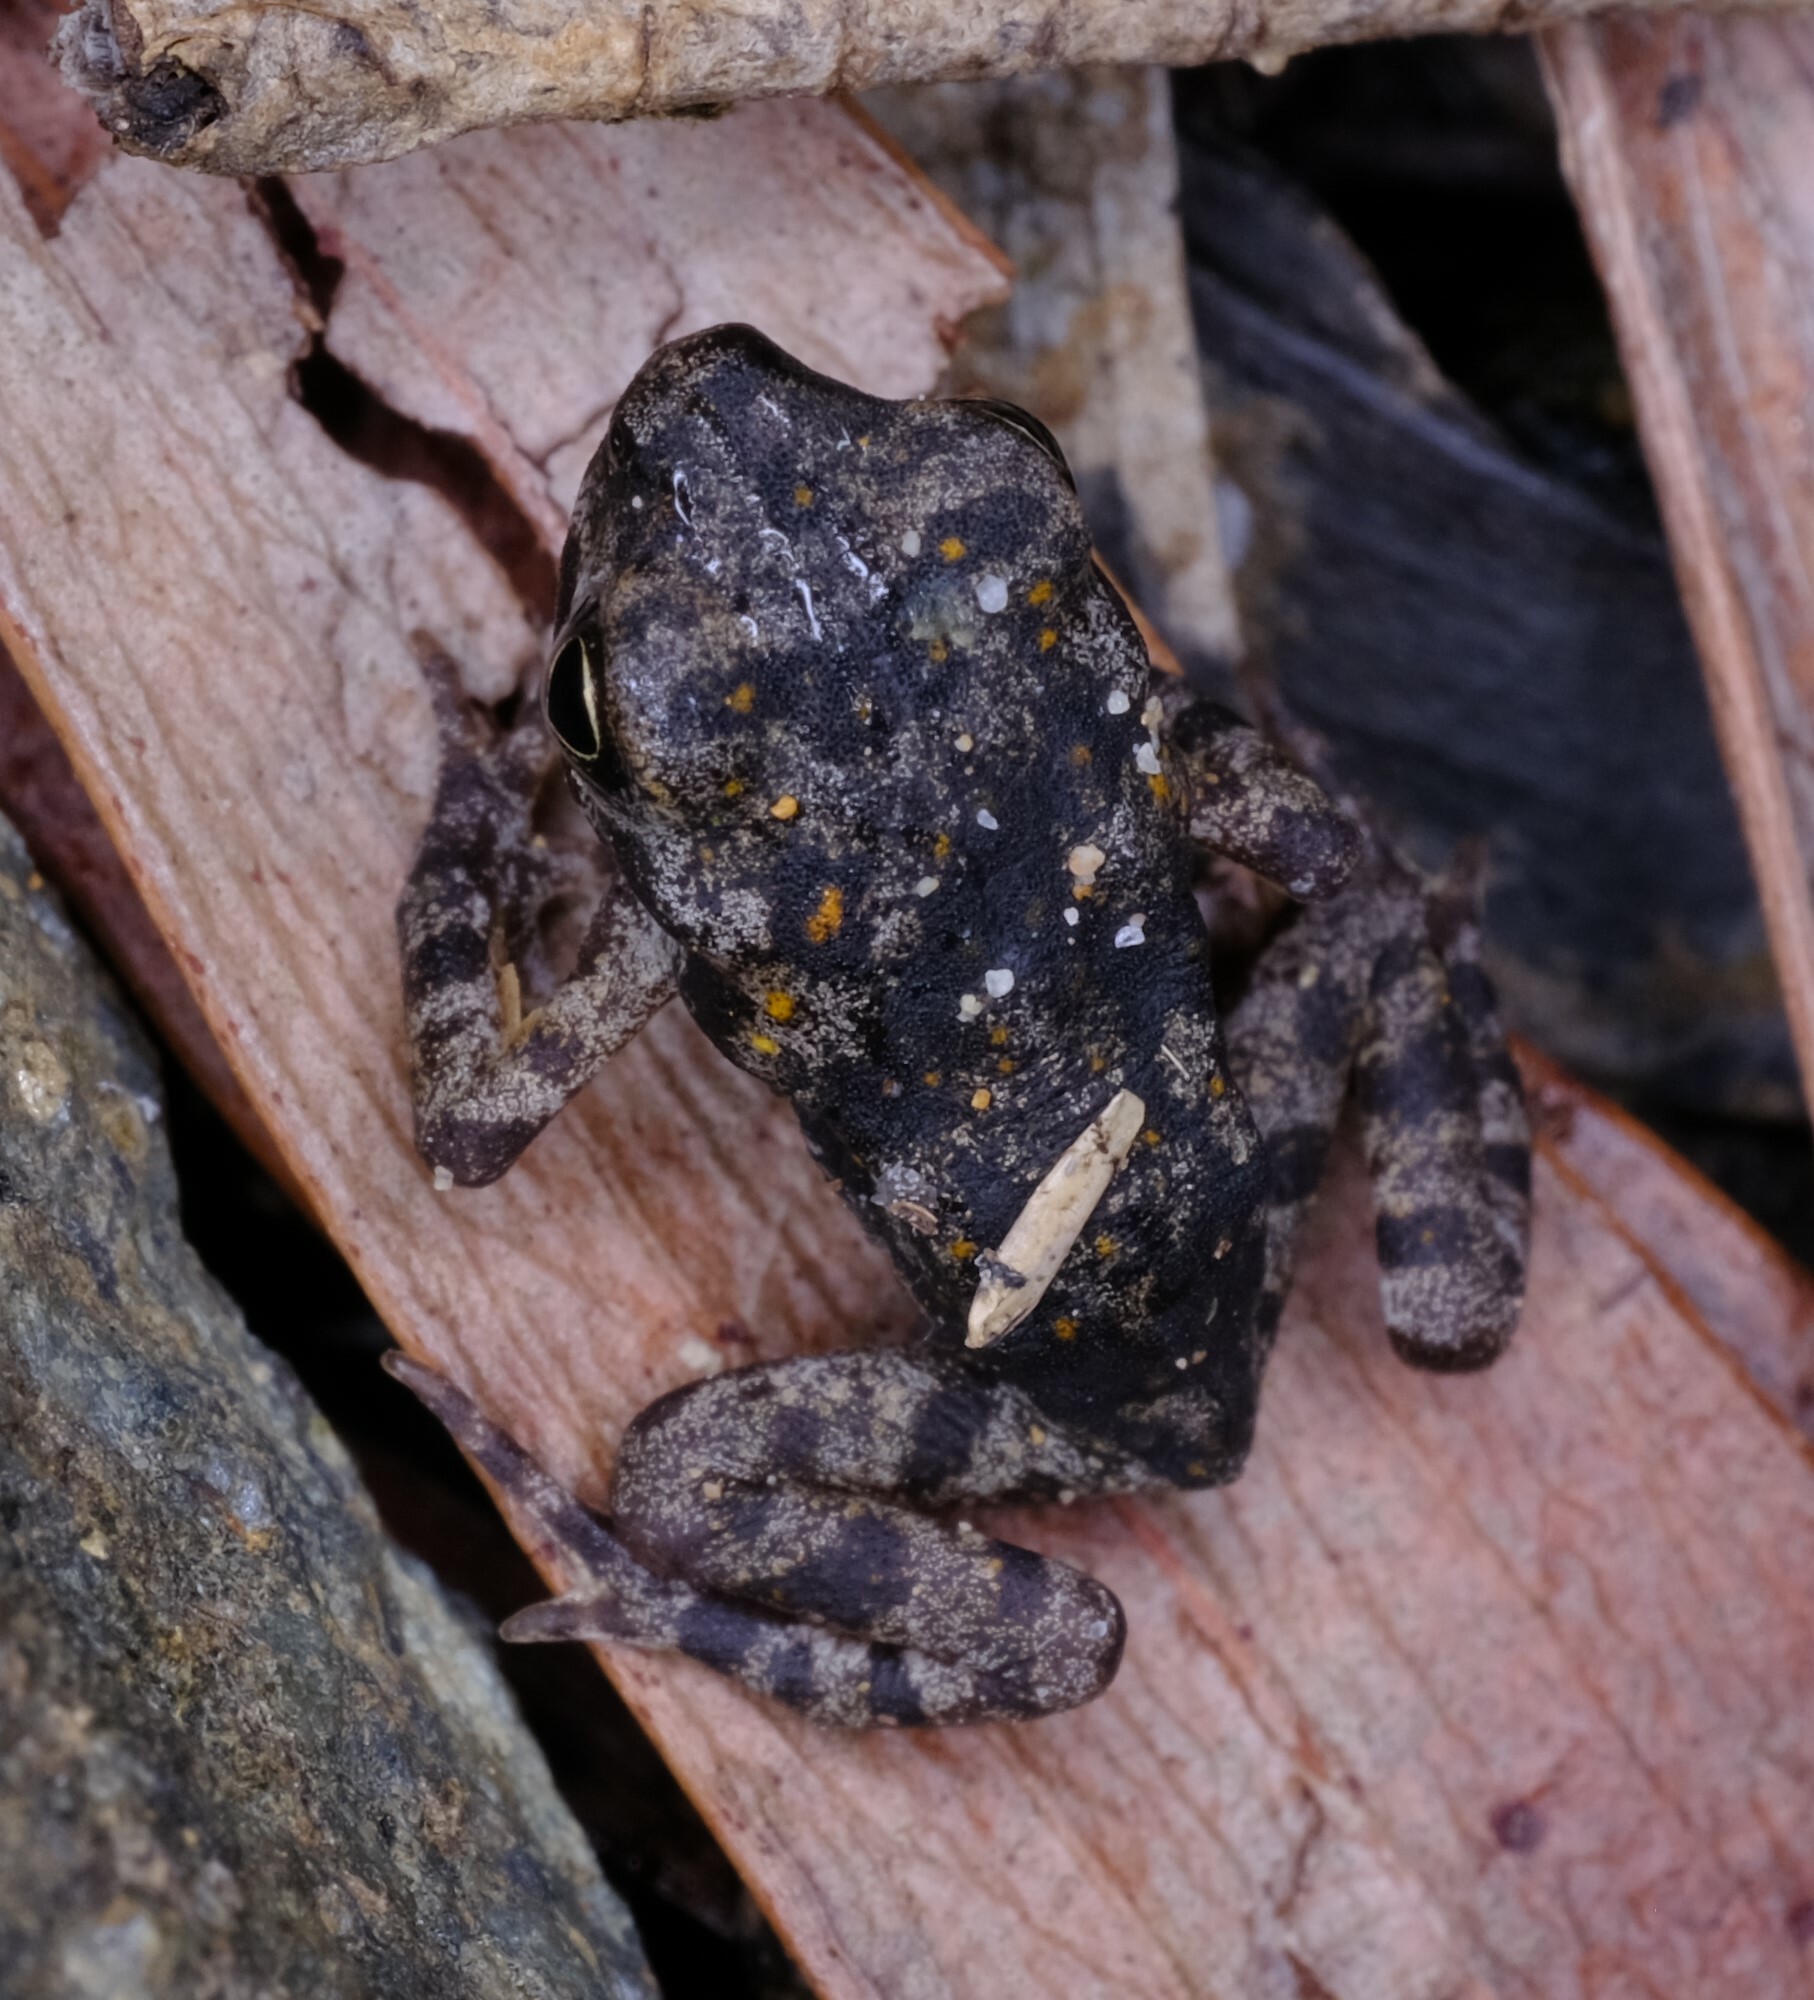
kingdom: Animalia
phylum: Chordata
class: Amphibia
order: Anura
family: Bufonidae
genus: Rhinella
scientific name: Rhinella marina
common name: Cane toad
